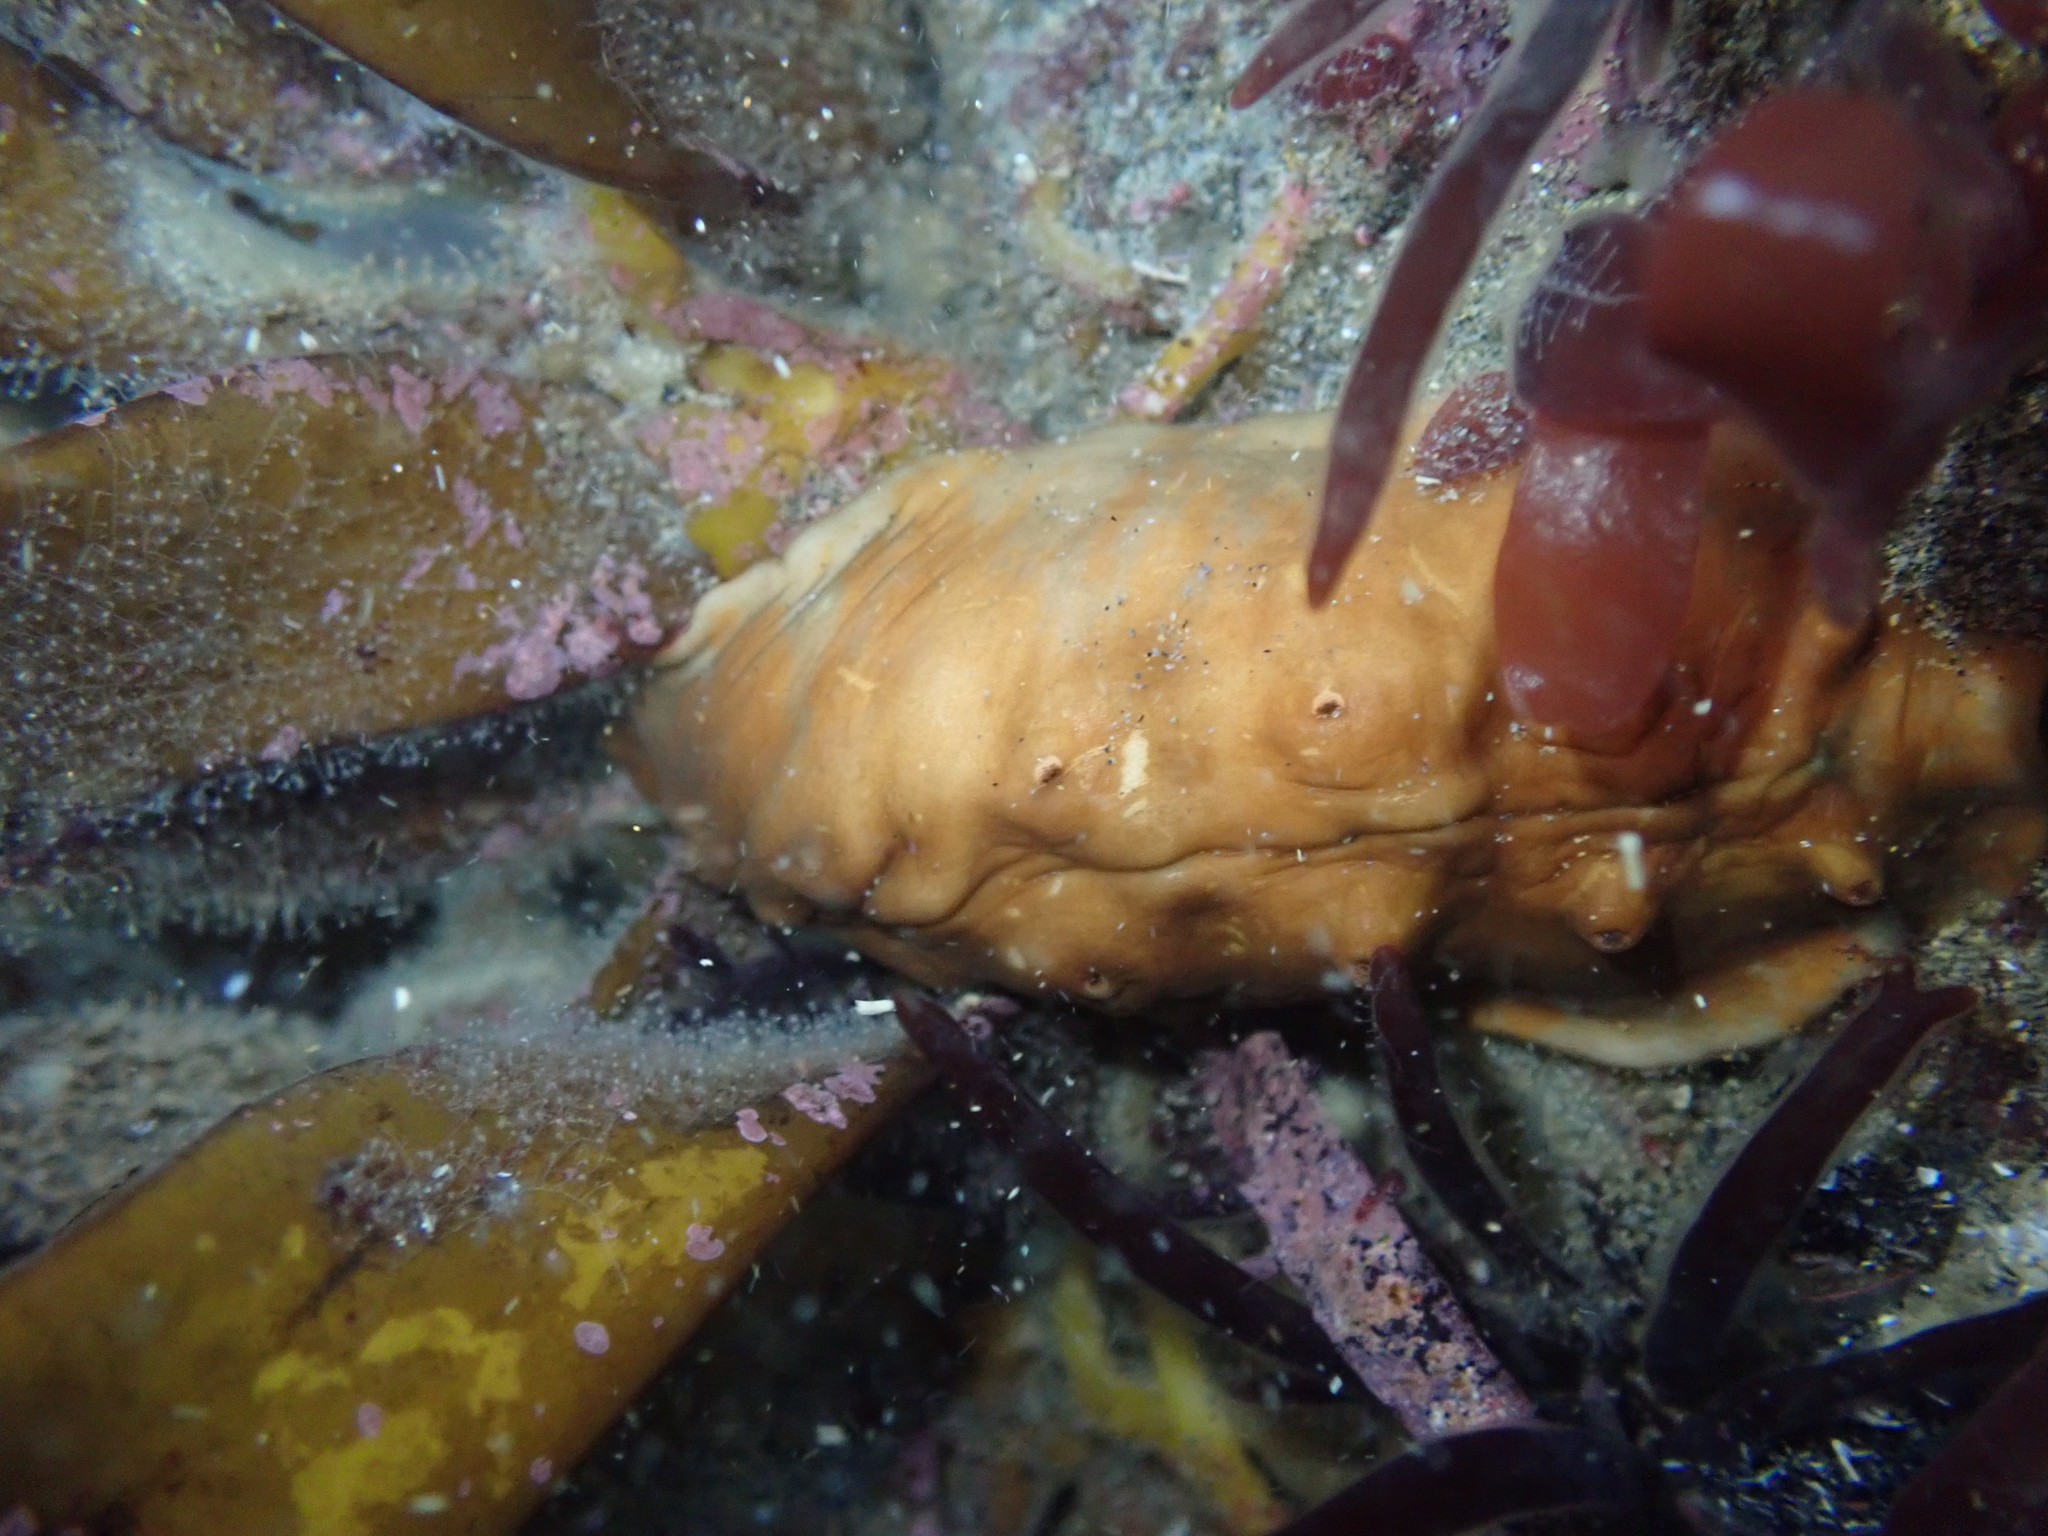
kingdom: Animalia
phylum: Mollusca
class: Polyplacophora
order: Chitonida
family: Acanthochitonidae
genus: Cryptoconchus
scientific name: Cryptoconchus porosus
